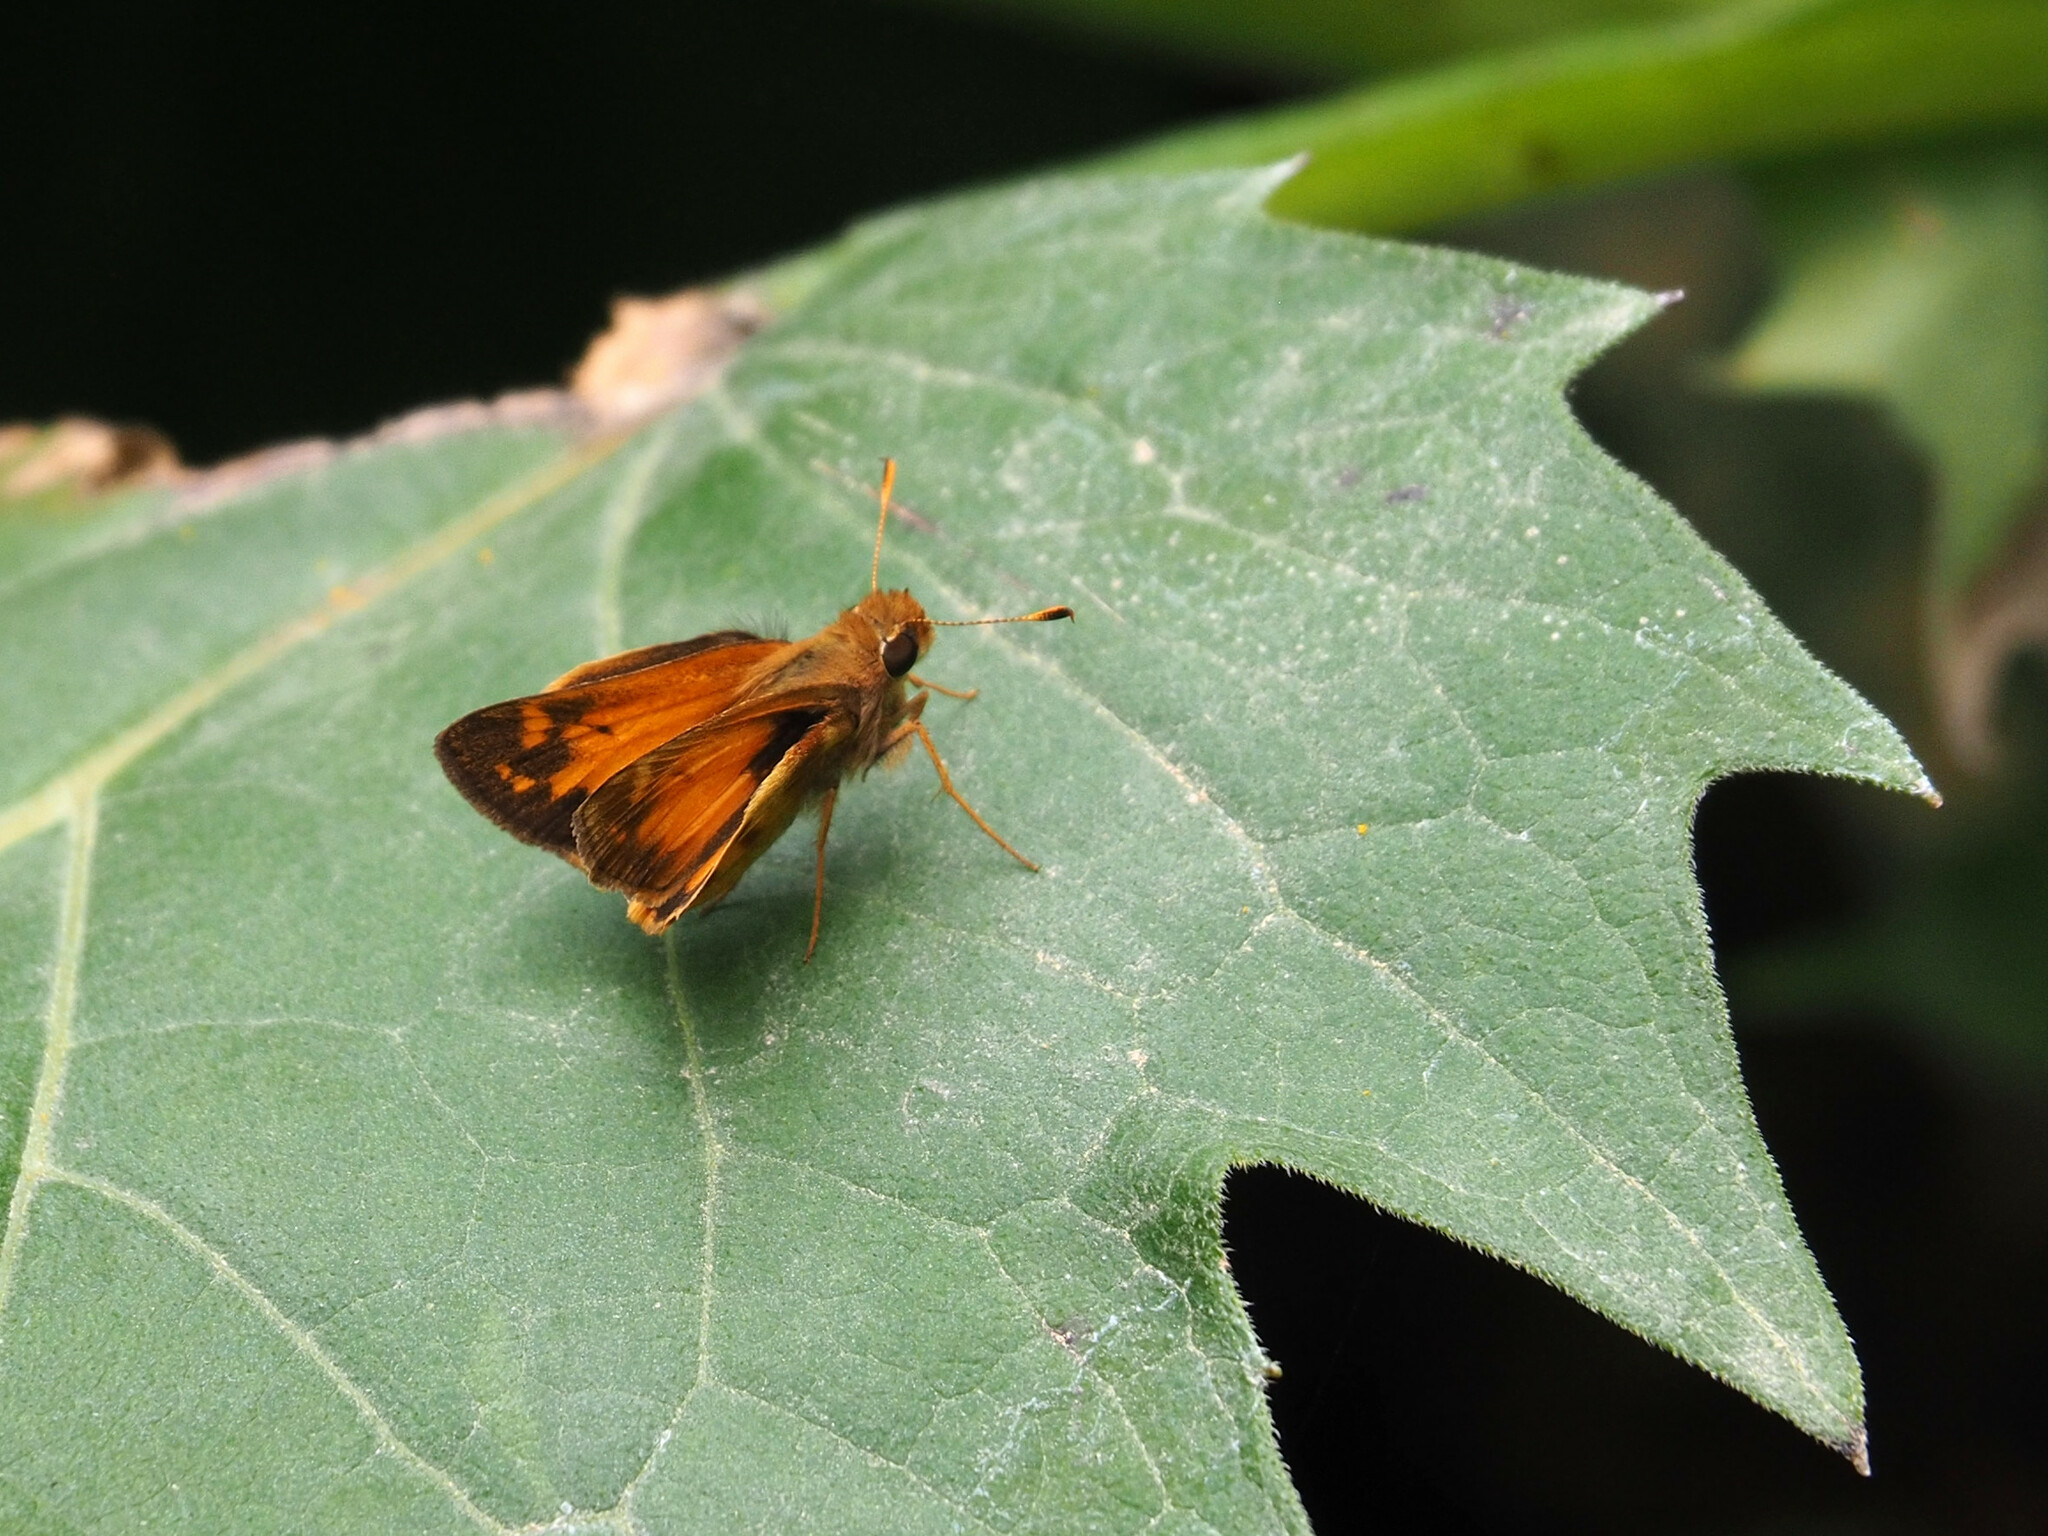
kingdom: Animalia
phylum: Arthropoda
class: Insecta
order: Lepidoptera
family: Hesperiidae
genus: Lon
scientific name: Lon zabulon
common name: Zabulon skipper
